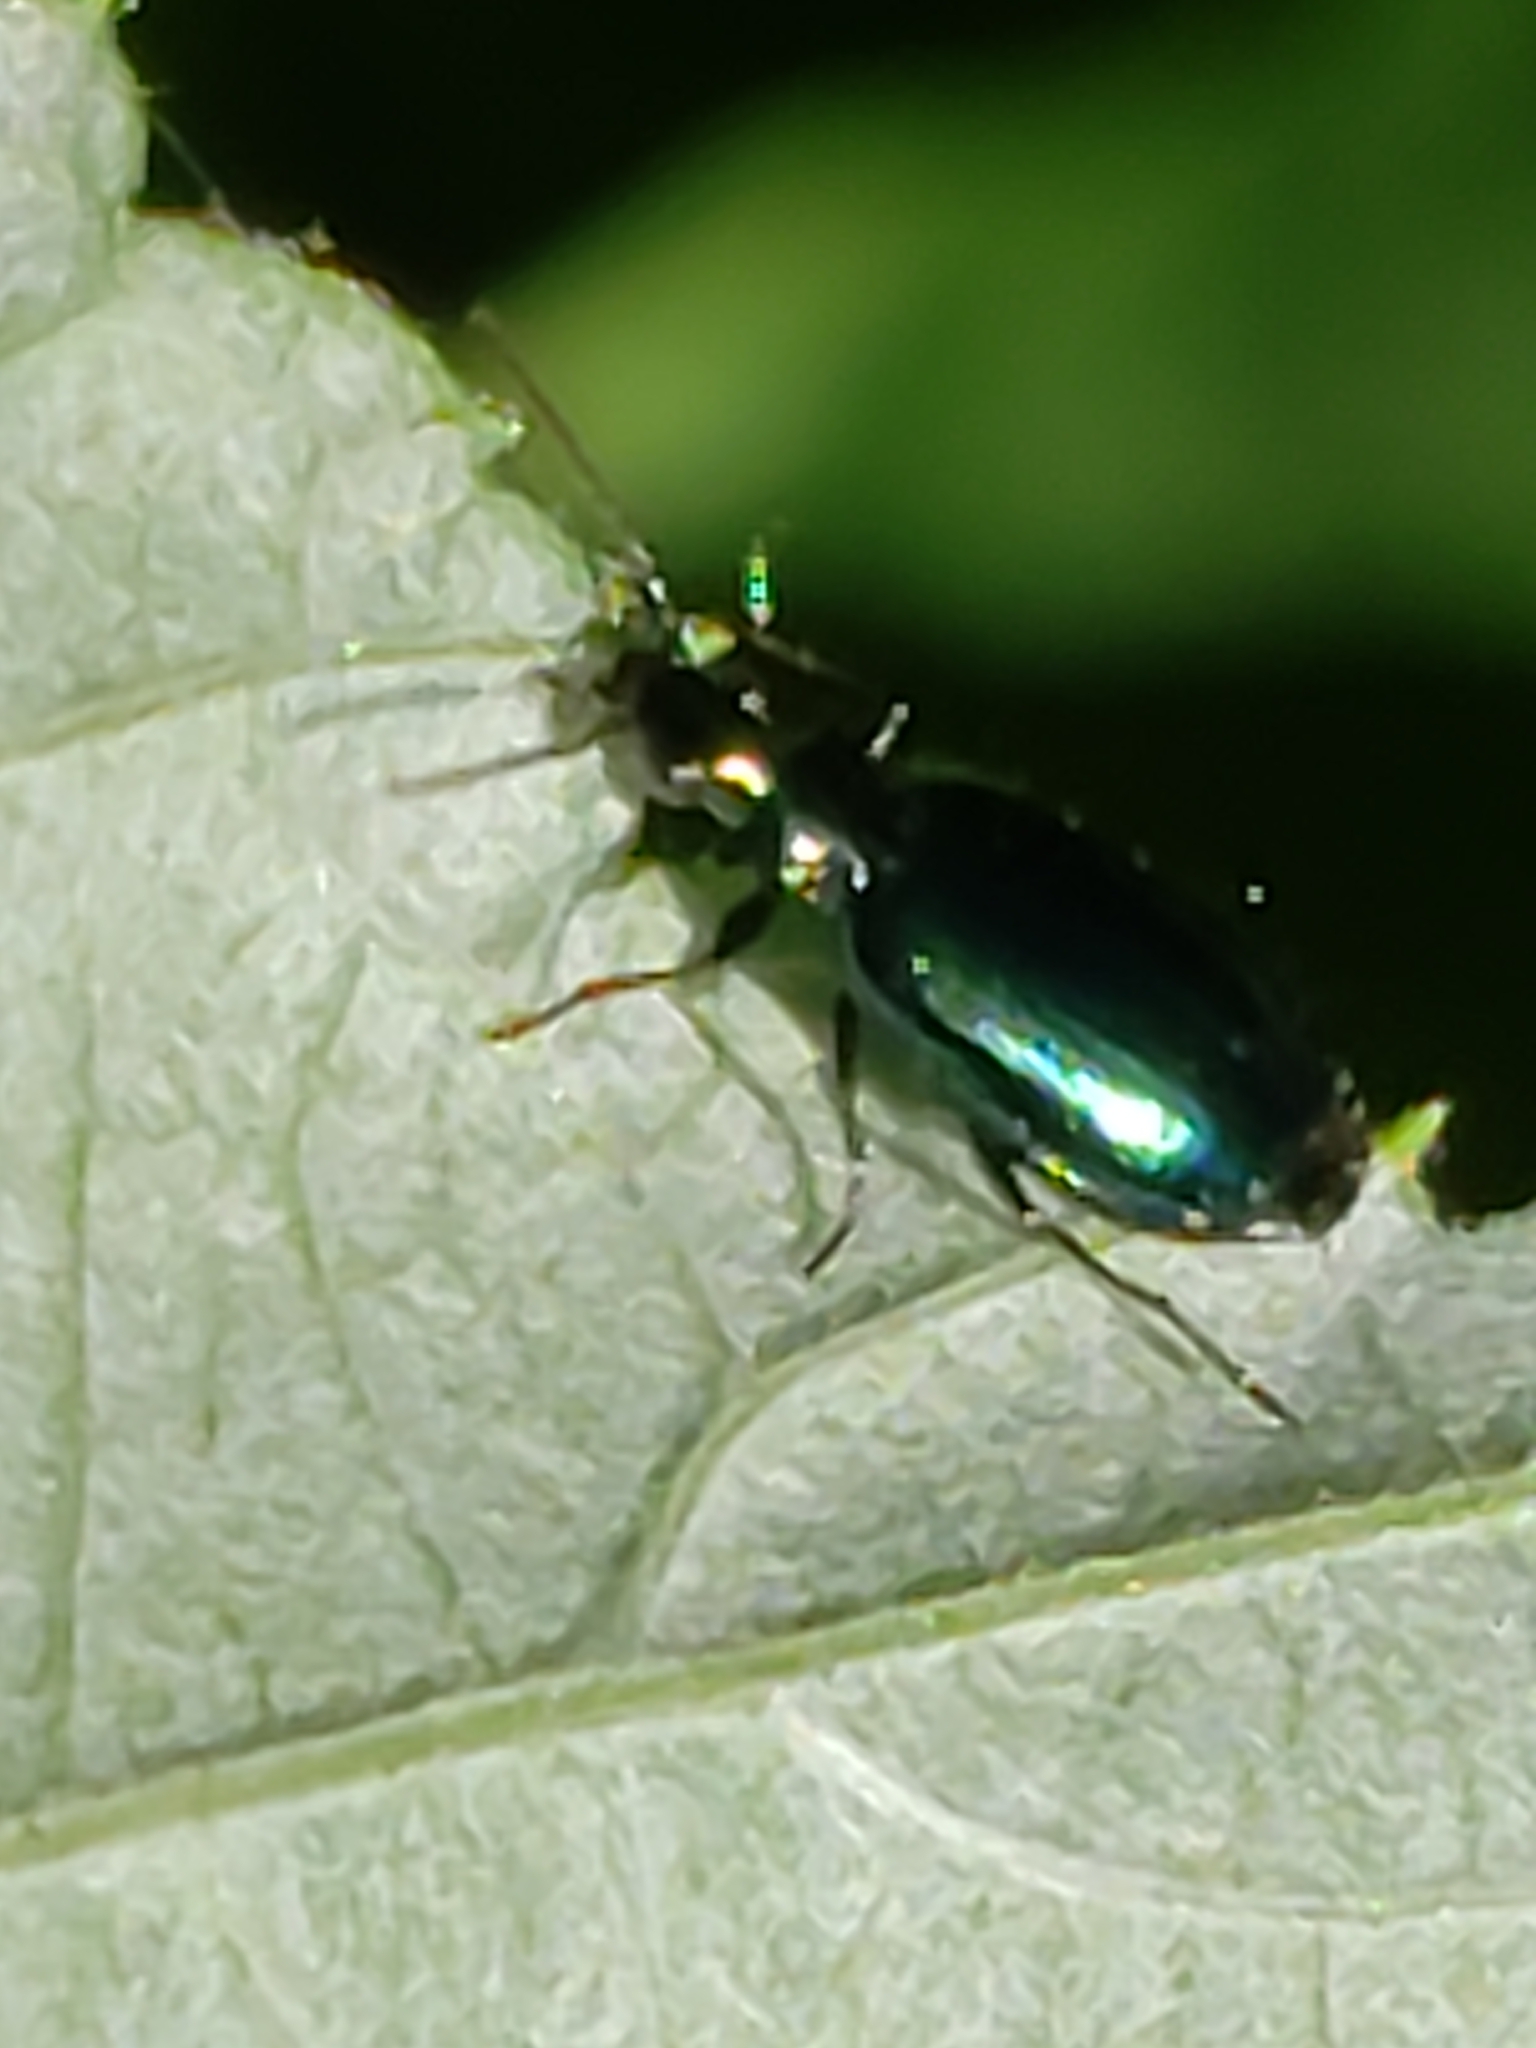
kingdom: Animalia
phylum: Arthropoda
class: Insecta
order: Coleoptera
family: Carabidae
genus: Lebia
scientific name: Lebia viridis
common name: Flower lebia beetle
